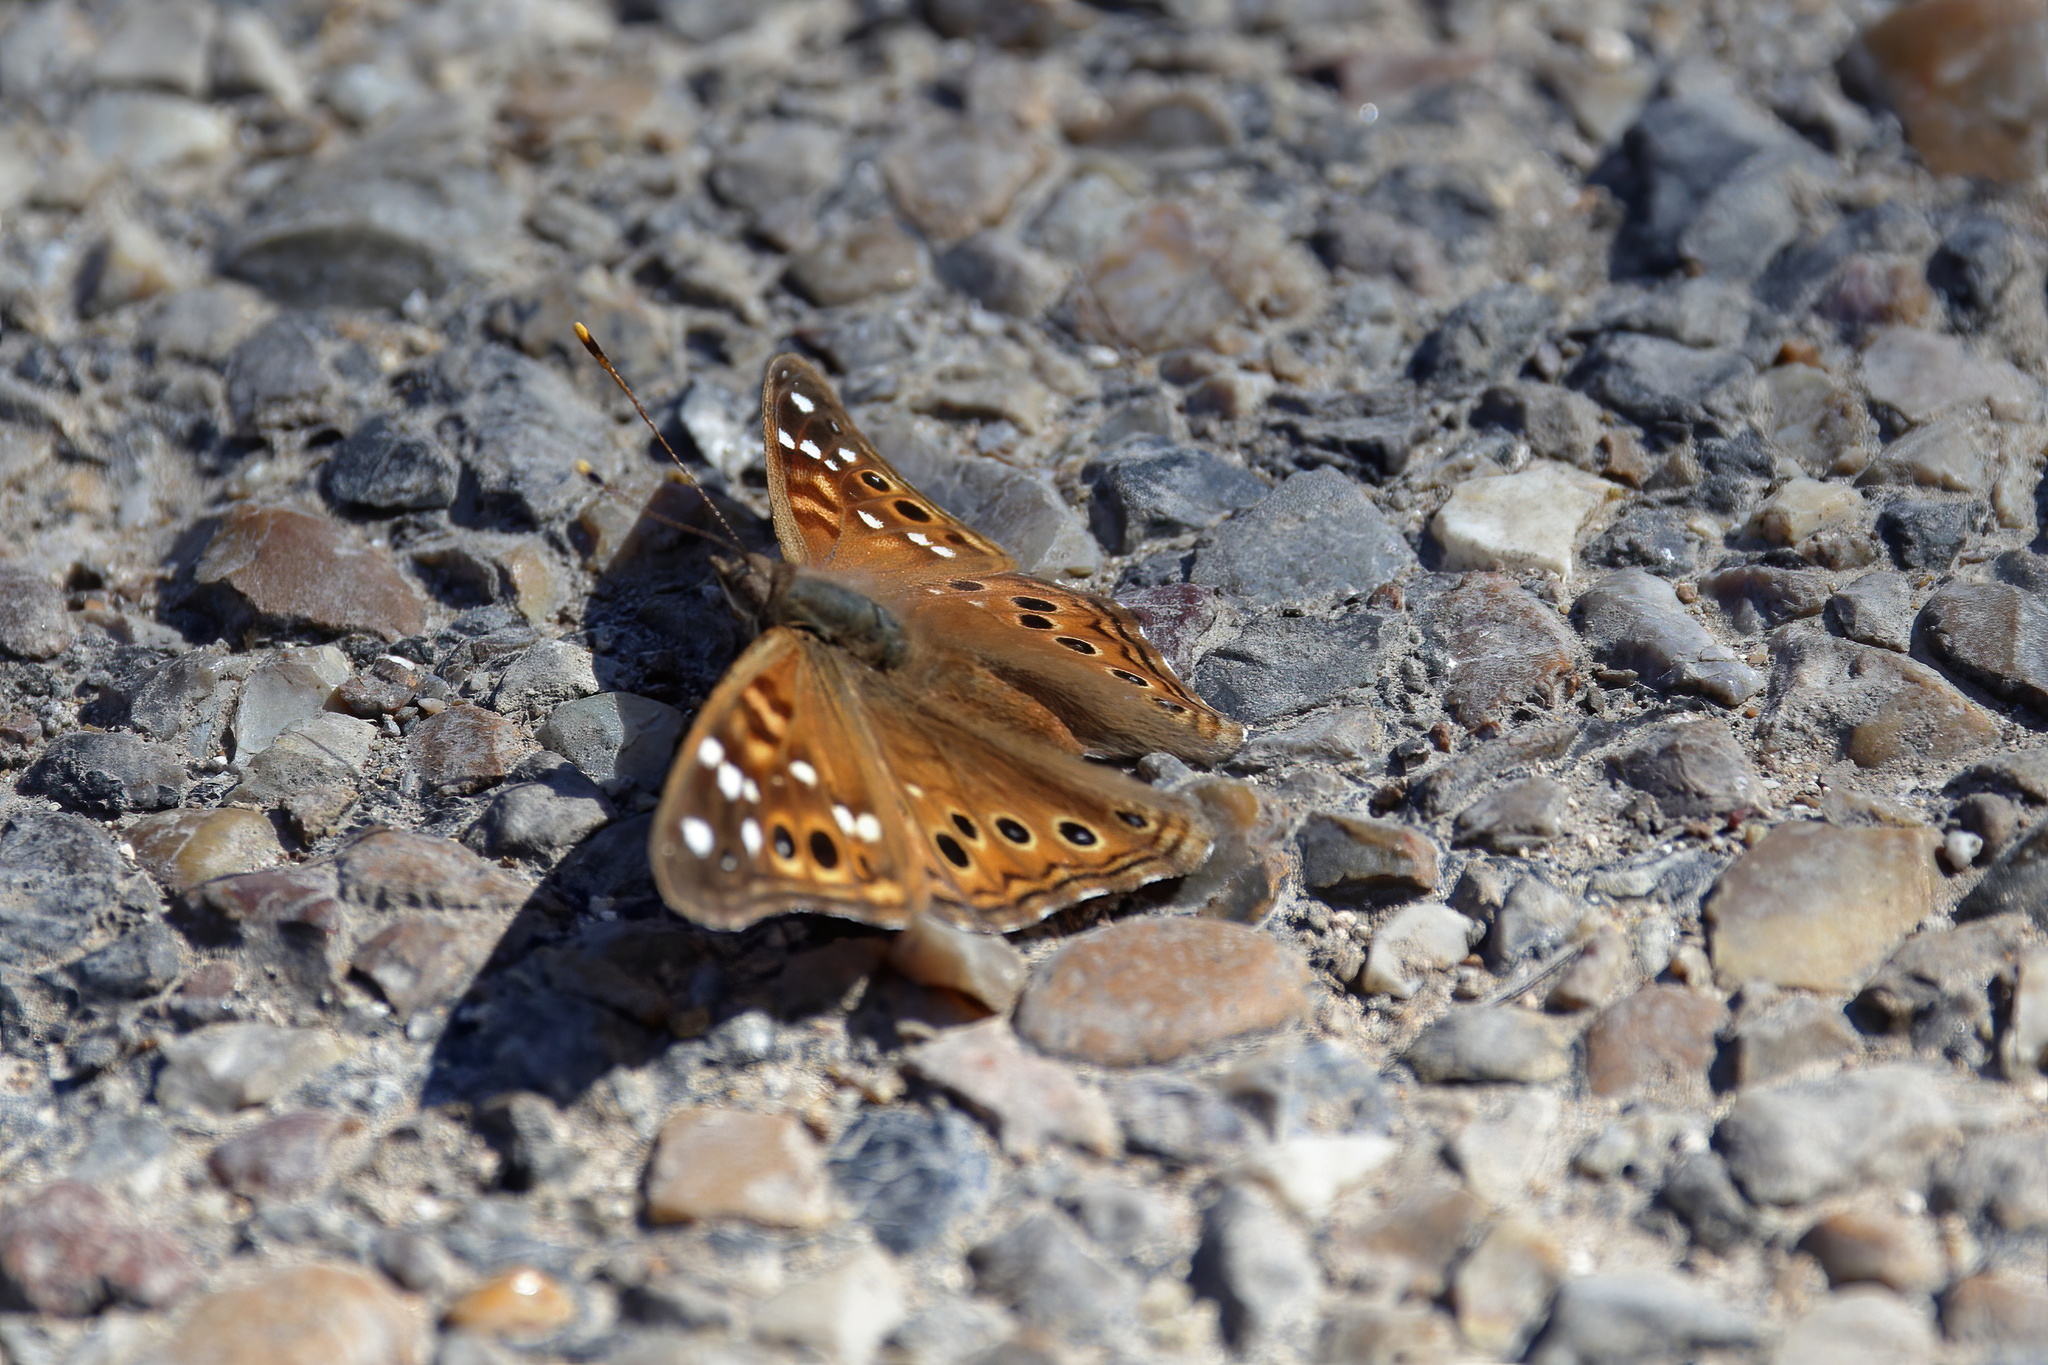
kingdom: Animalia
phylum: Arthropoda
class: Insecta
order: Lepidoptera
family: Nymphalidae
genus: Asterocampa
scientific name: Asterocampa leilia
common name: Empress leilia
